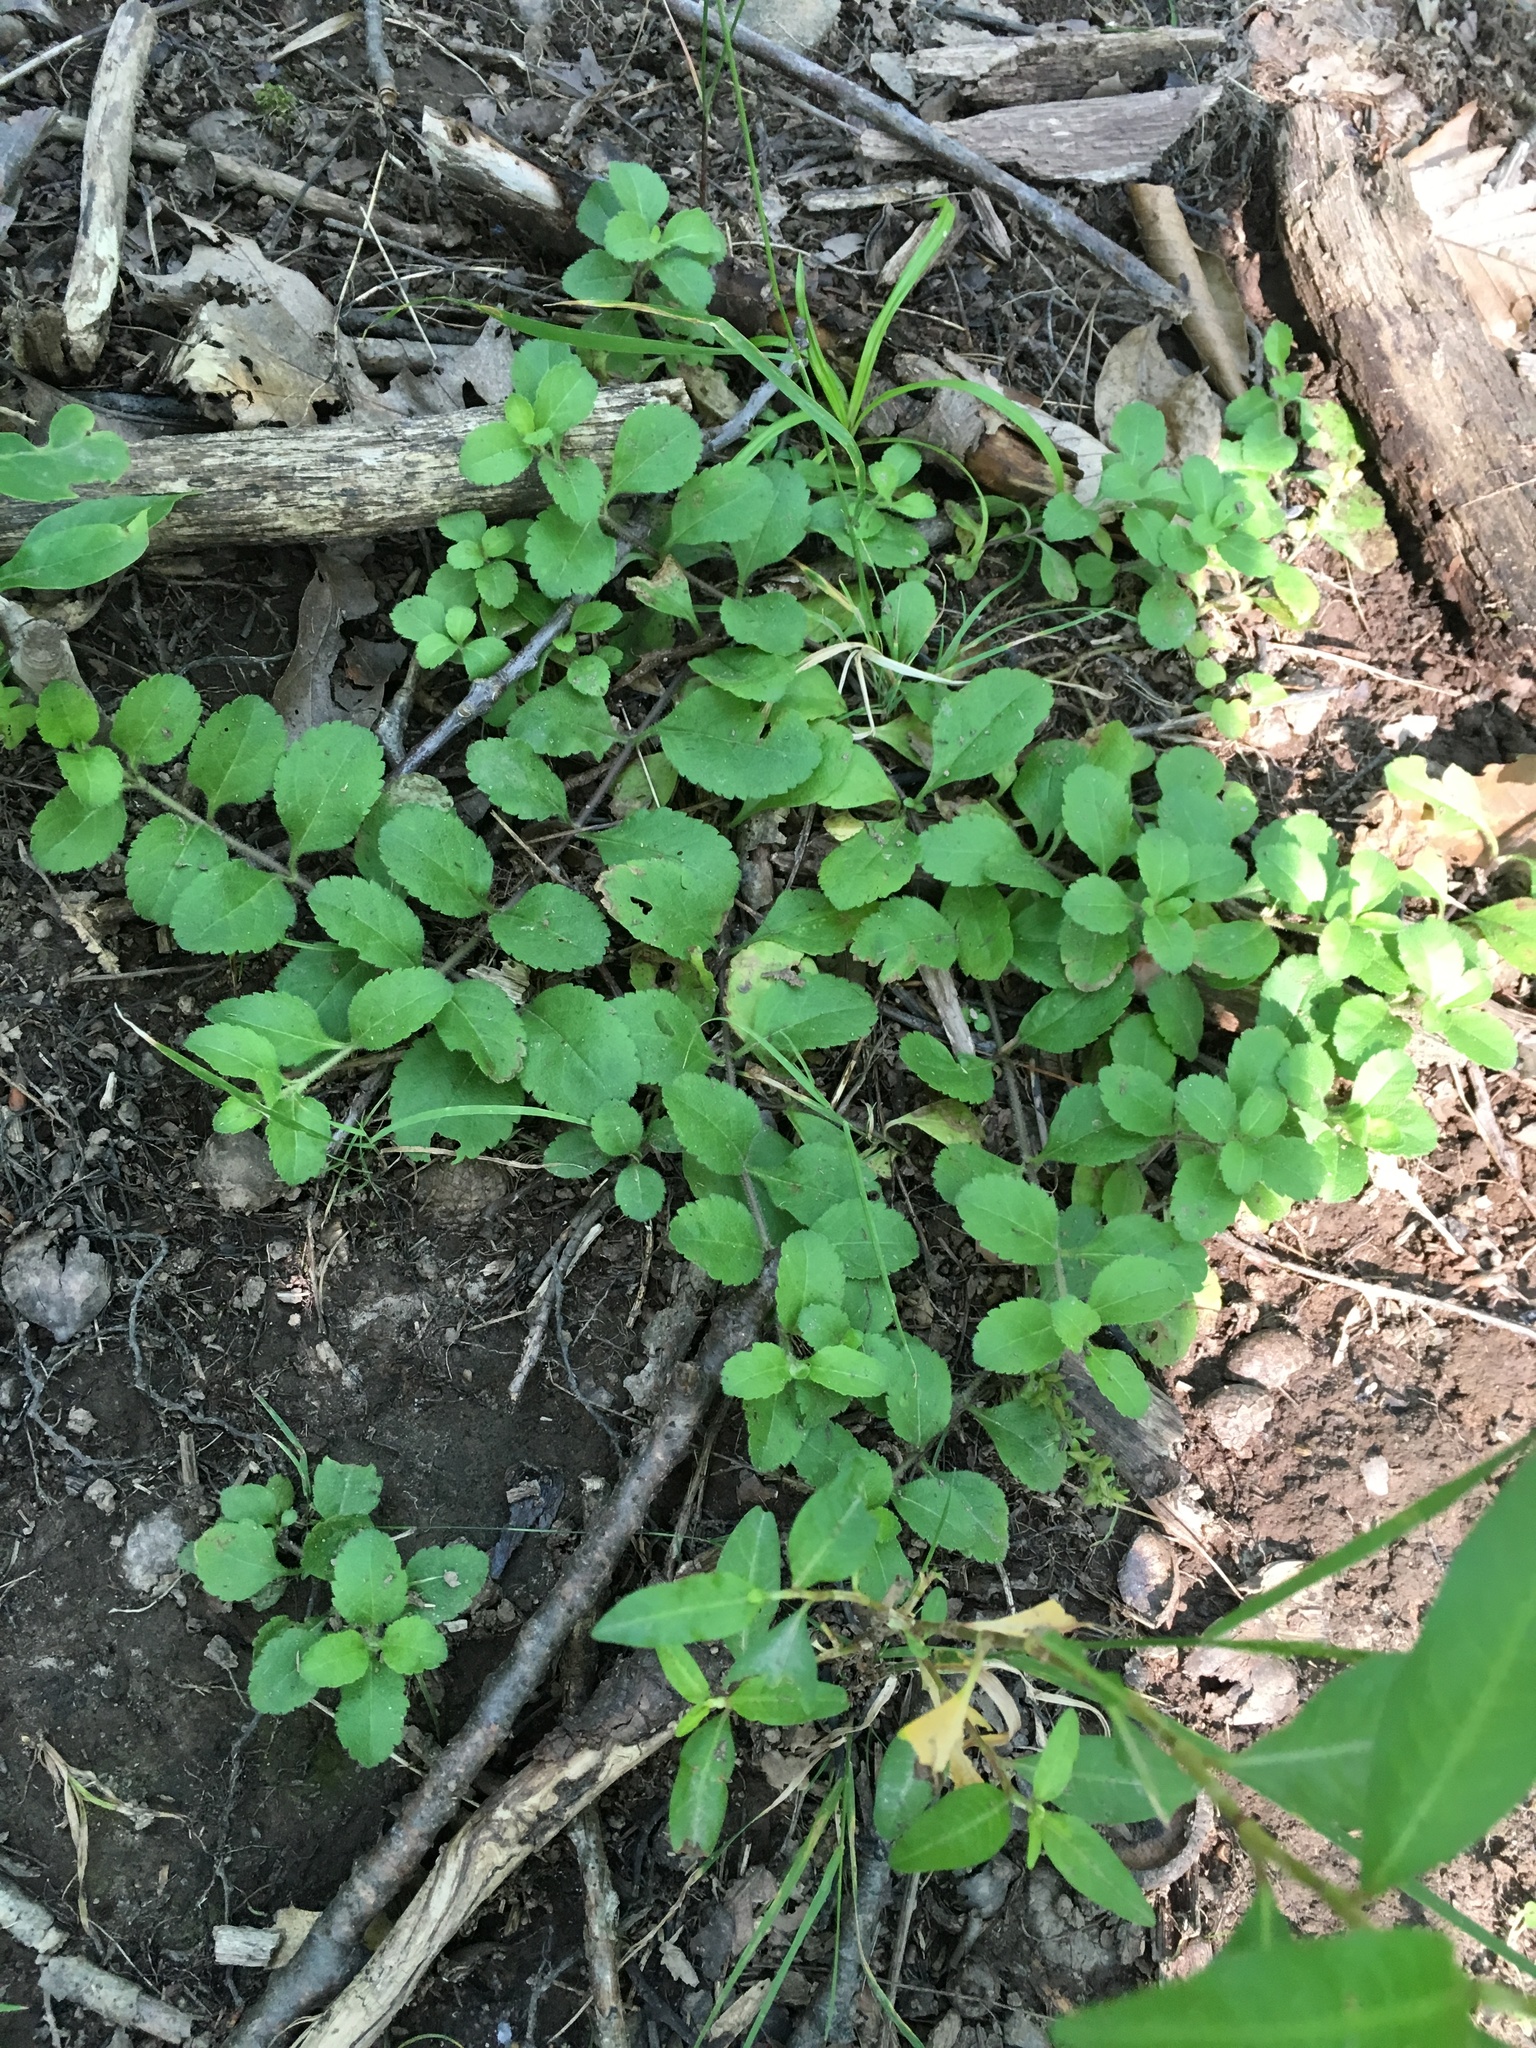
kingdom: Plantae
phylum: Tracheophyta
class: Magnoliopsida
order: Lamiales
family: Plantaginaceae
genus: Veronica
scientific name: Veronica officinalis
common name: Common speedwell
